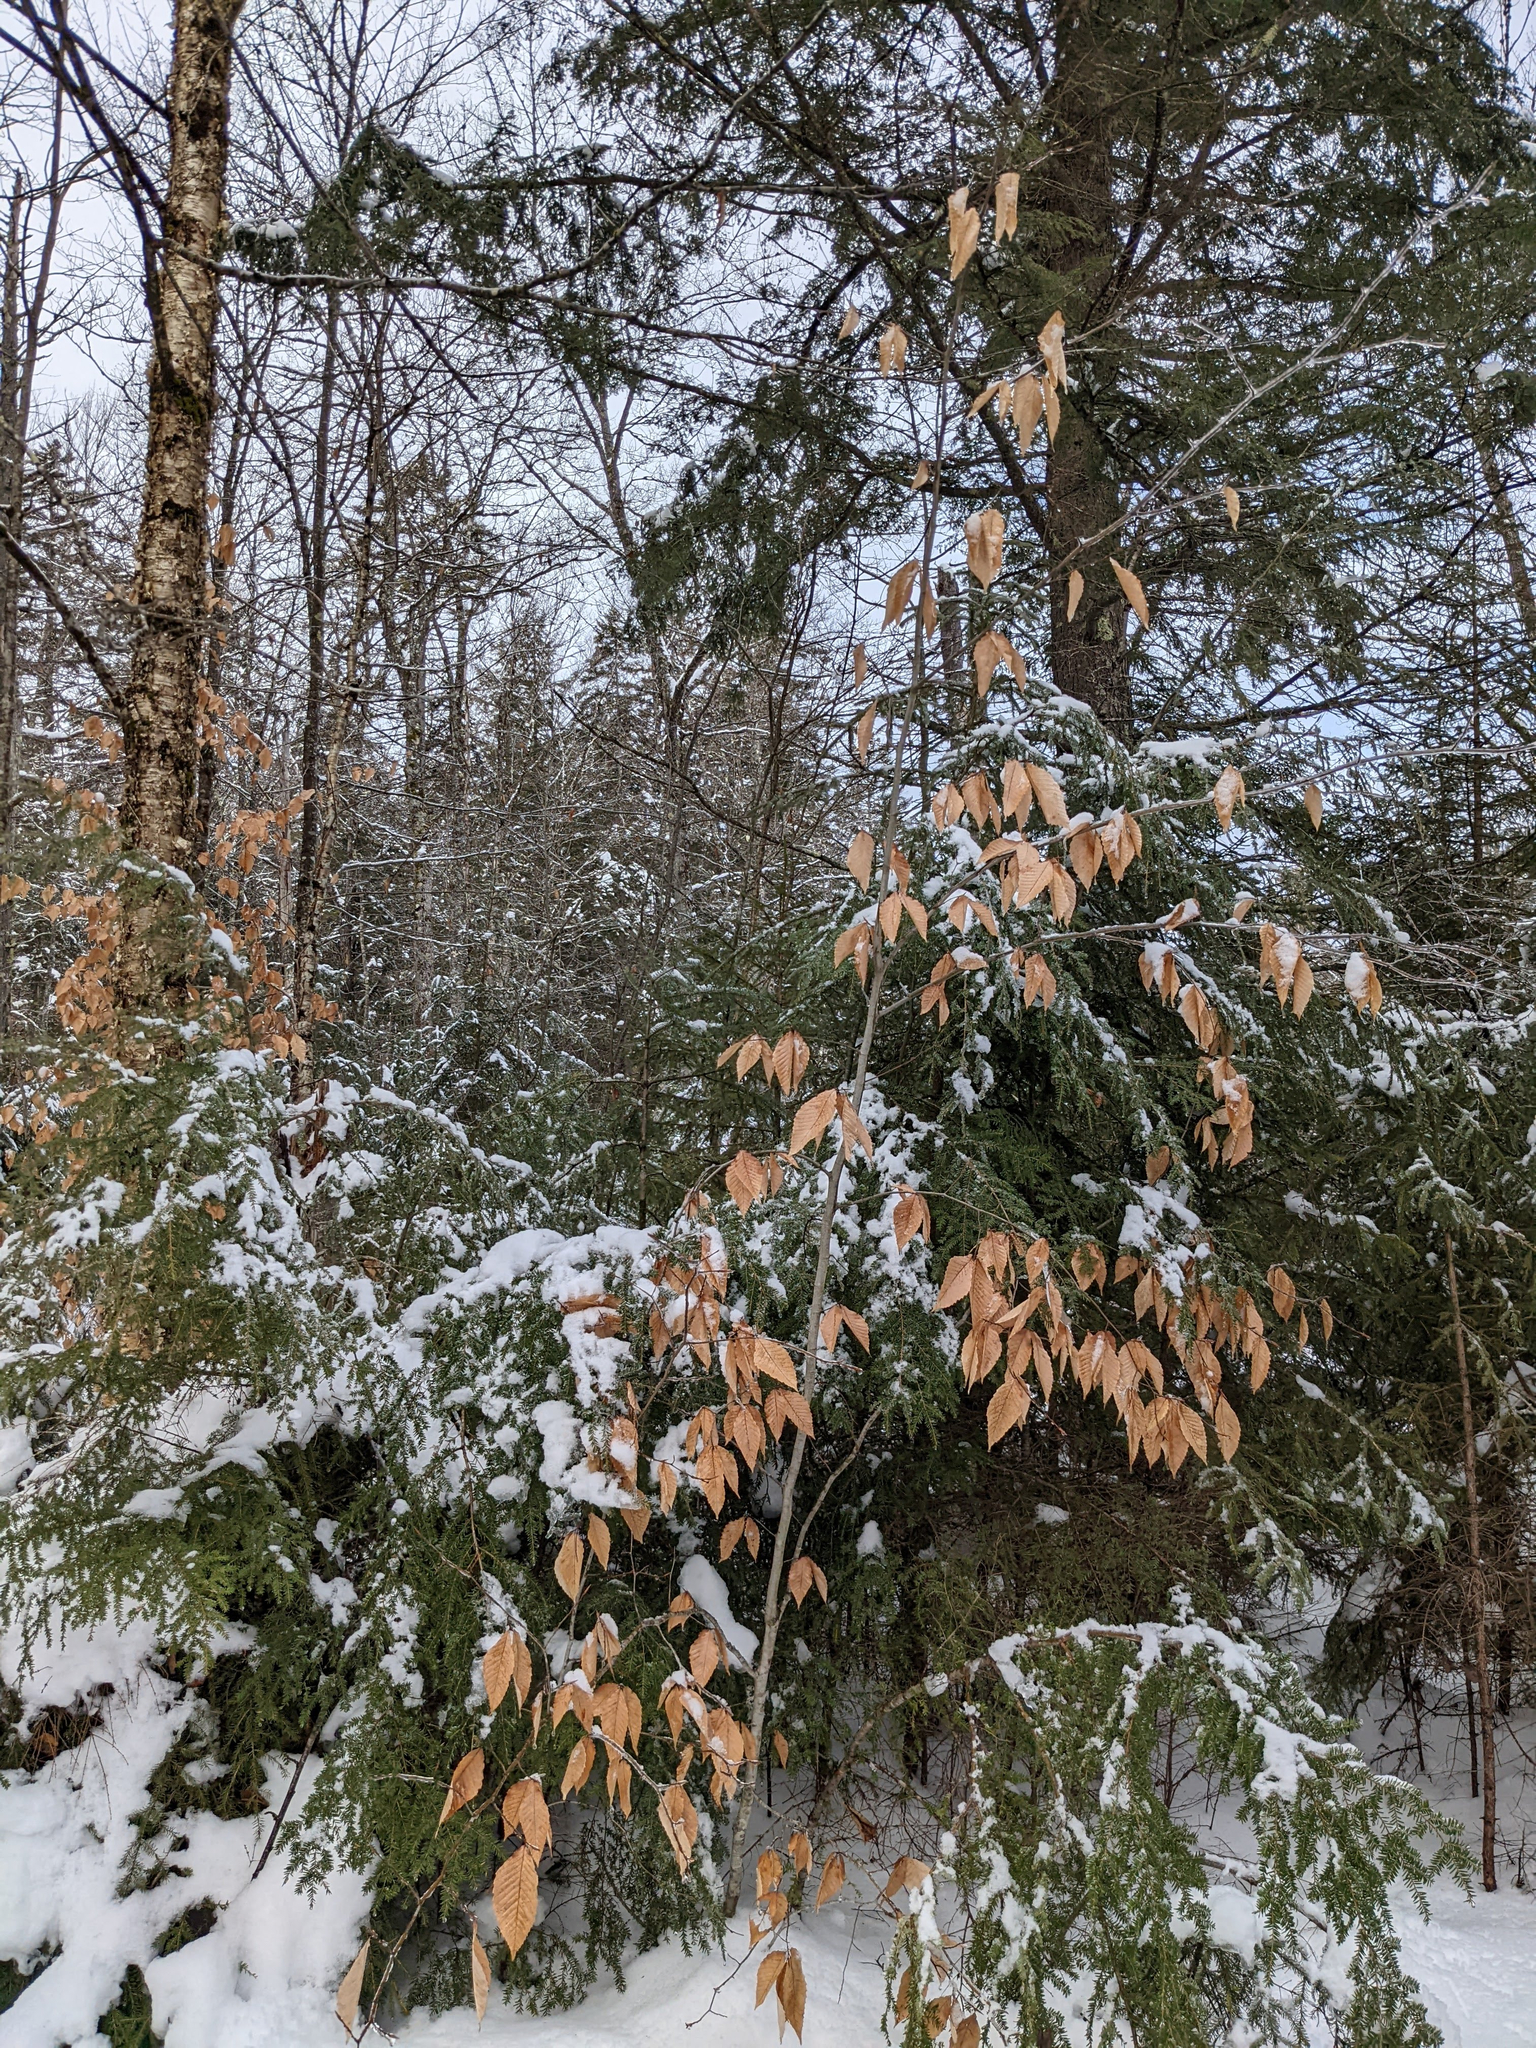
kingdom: Plantae
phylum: Tracheophyta
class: Magnoliopsida
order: Fagales
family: Fagaceae
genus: Fagus
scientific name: Fagus grandifolia
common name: American beech
